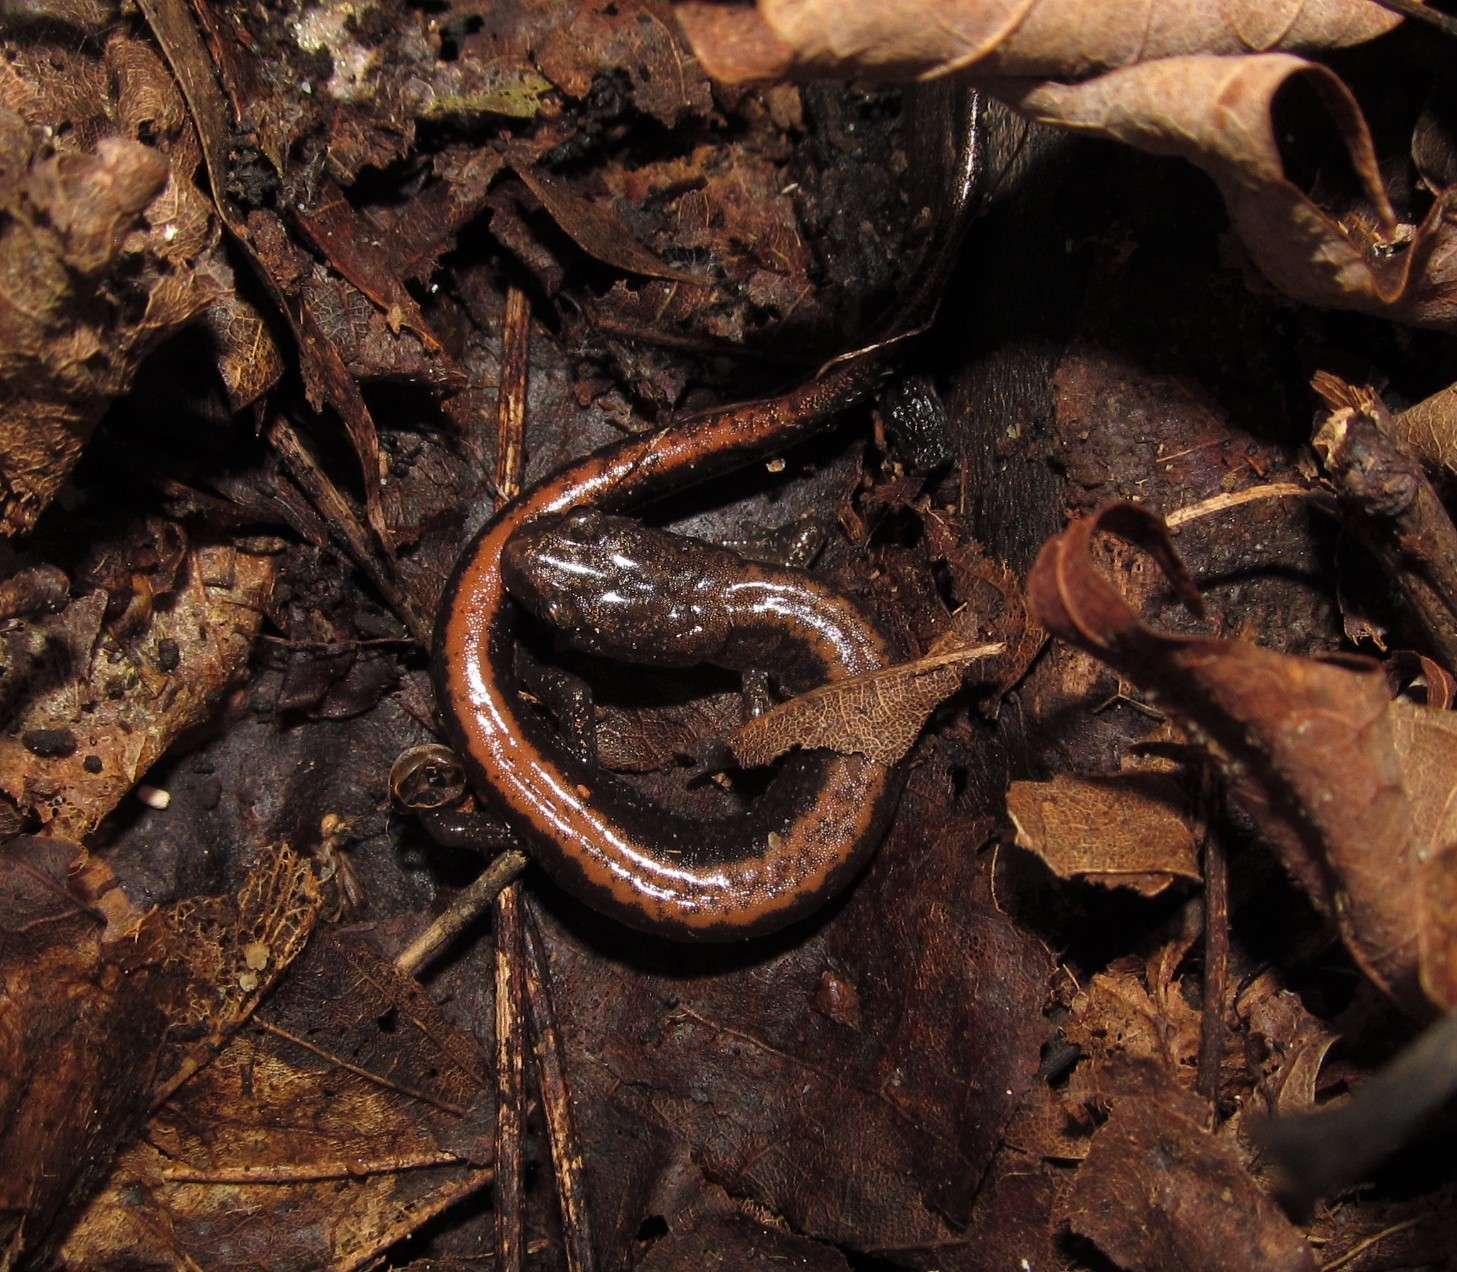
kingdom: Animalia
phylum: Chordata
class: Amphibia
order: Caudata
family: Plethodontidae
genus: Plethodon
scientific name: Plethodon cinereus
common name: Redback salamander
